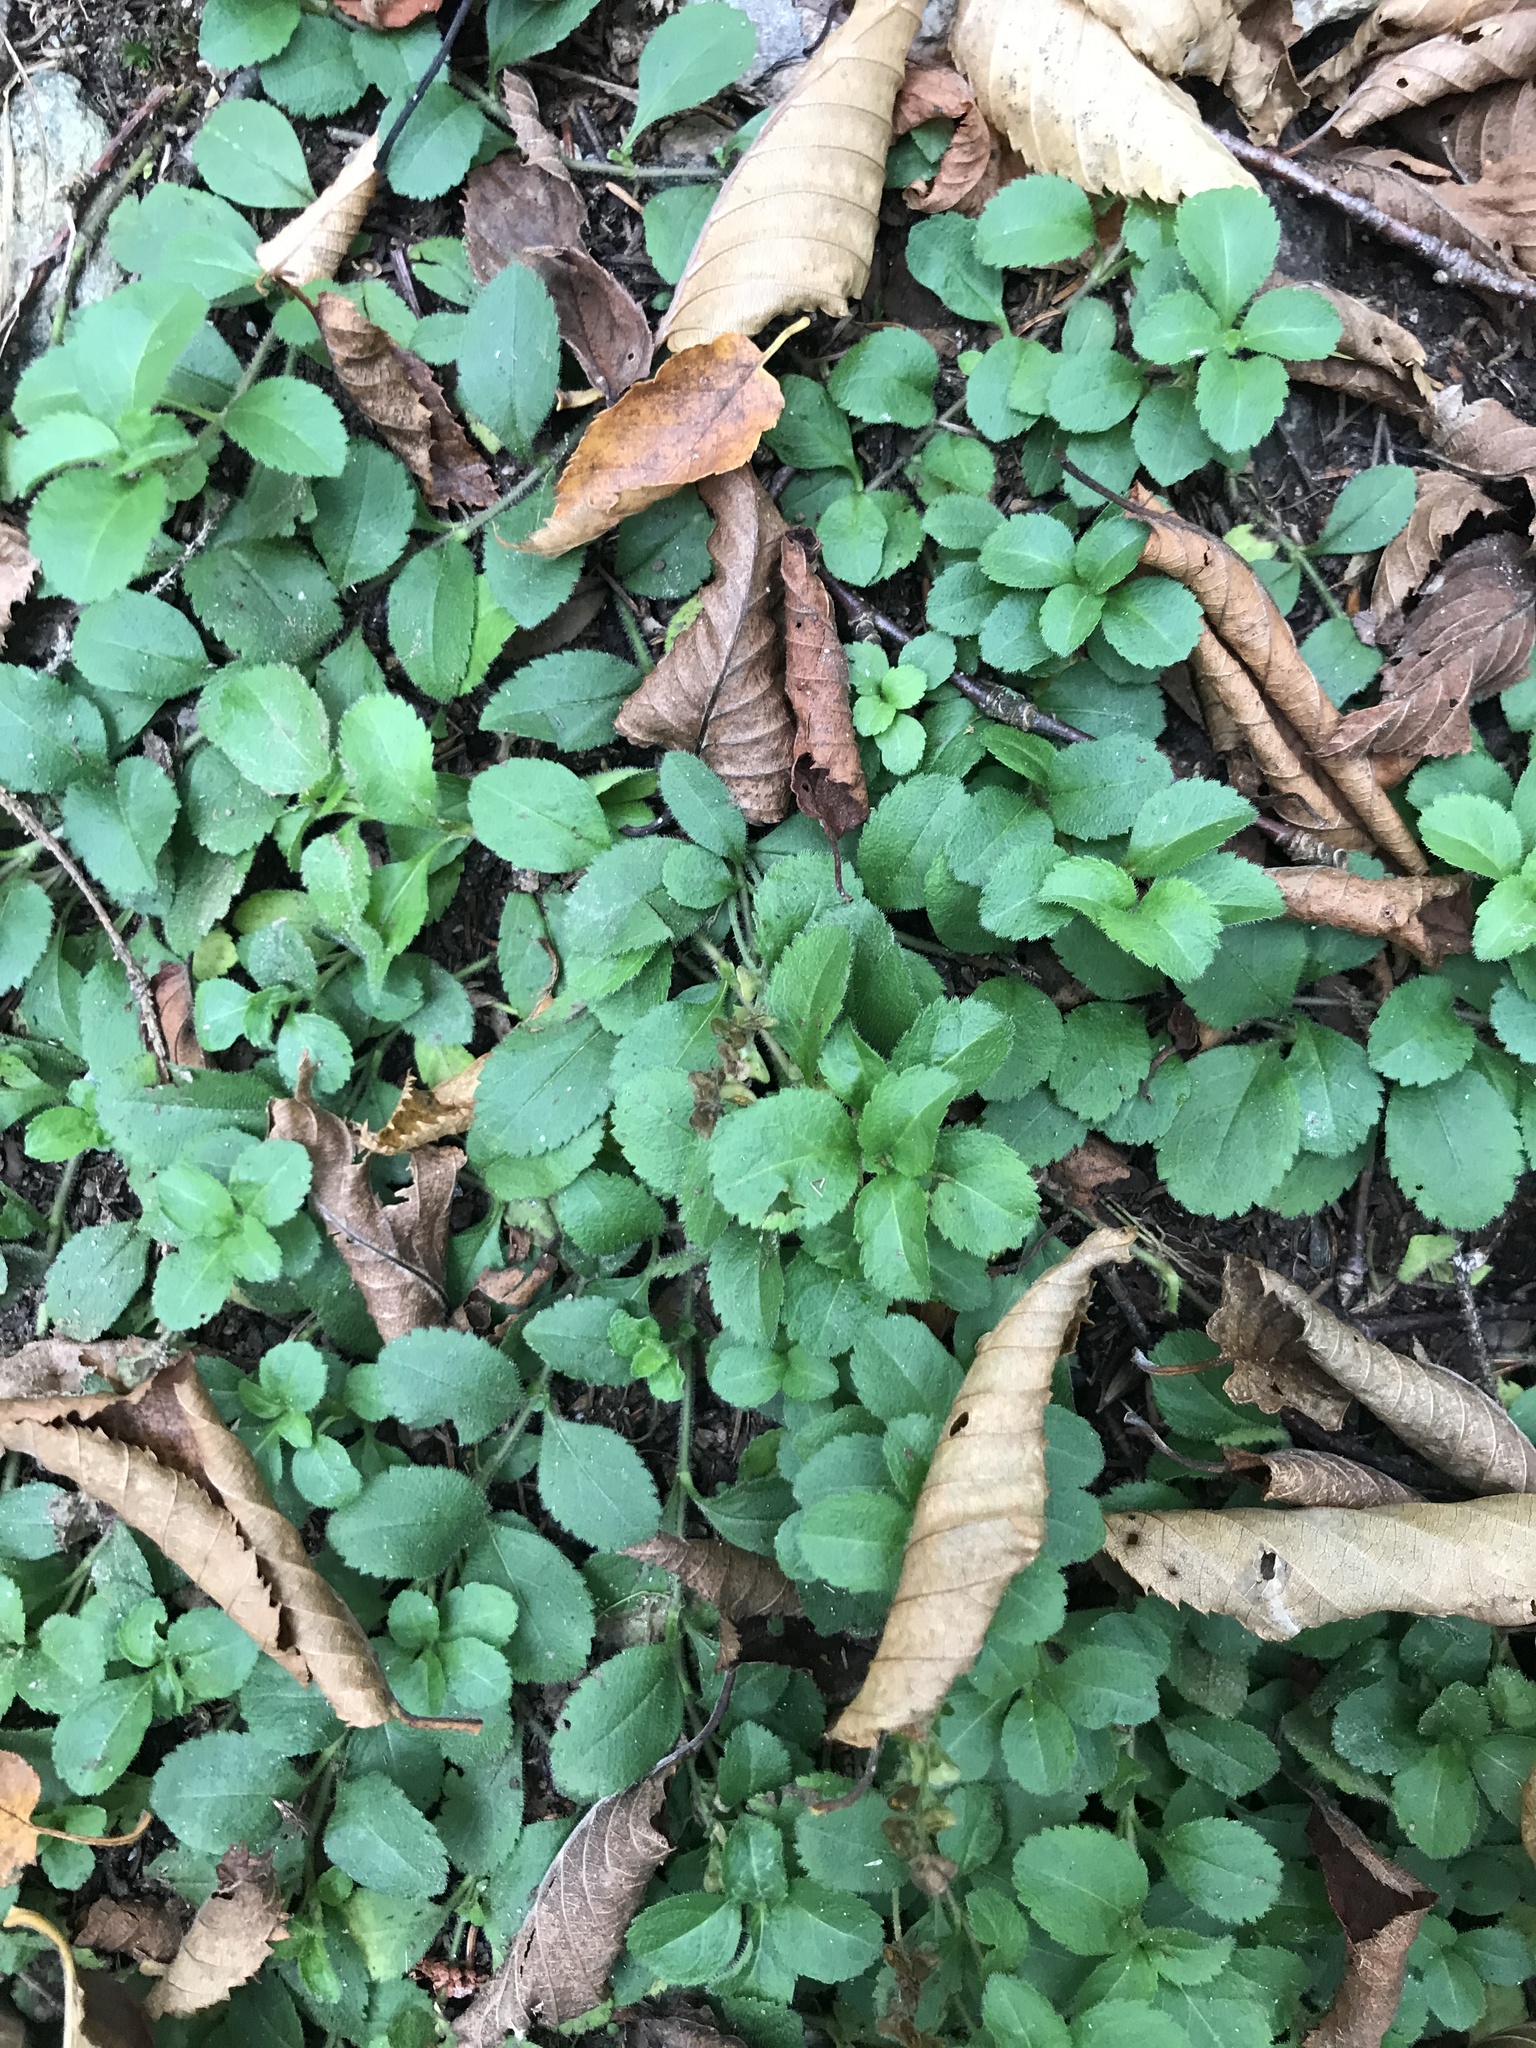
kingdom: Plantae
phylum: Tracheophyta
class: Magnoliopsida
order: Lamiales
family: Plantaginaceae
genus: Veronica
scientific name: Veronica officinalis
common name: Common speedwell
